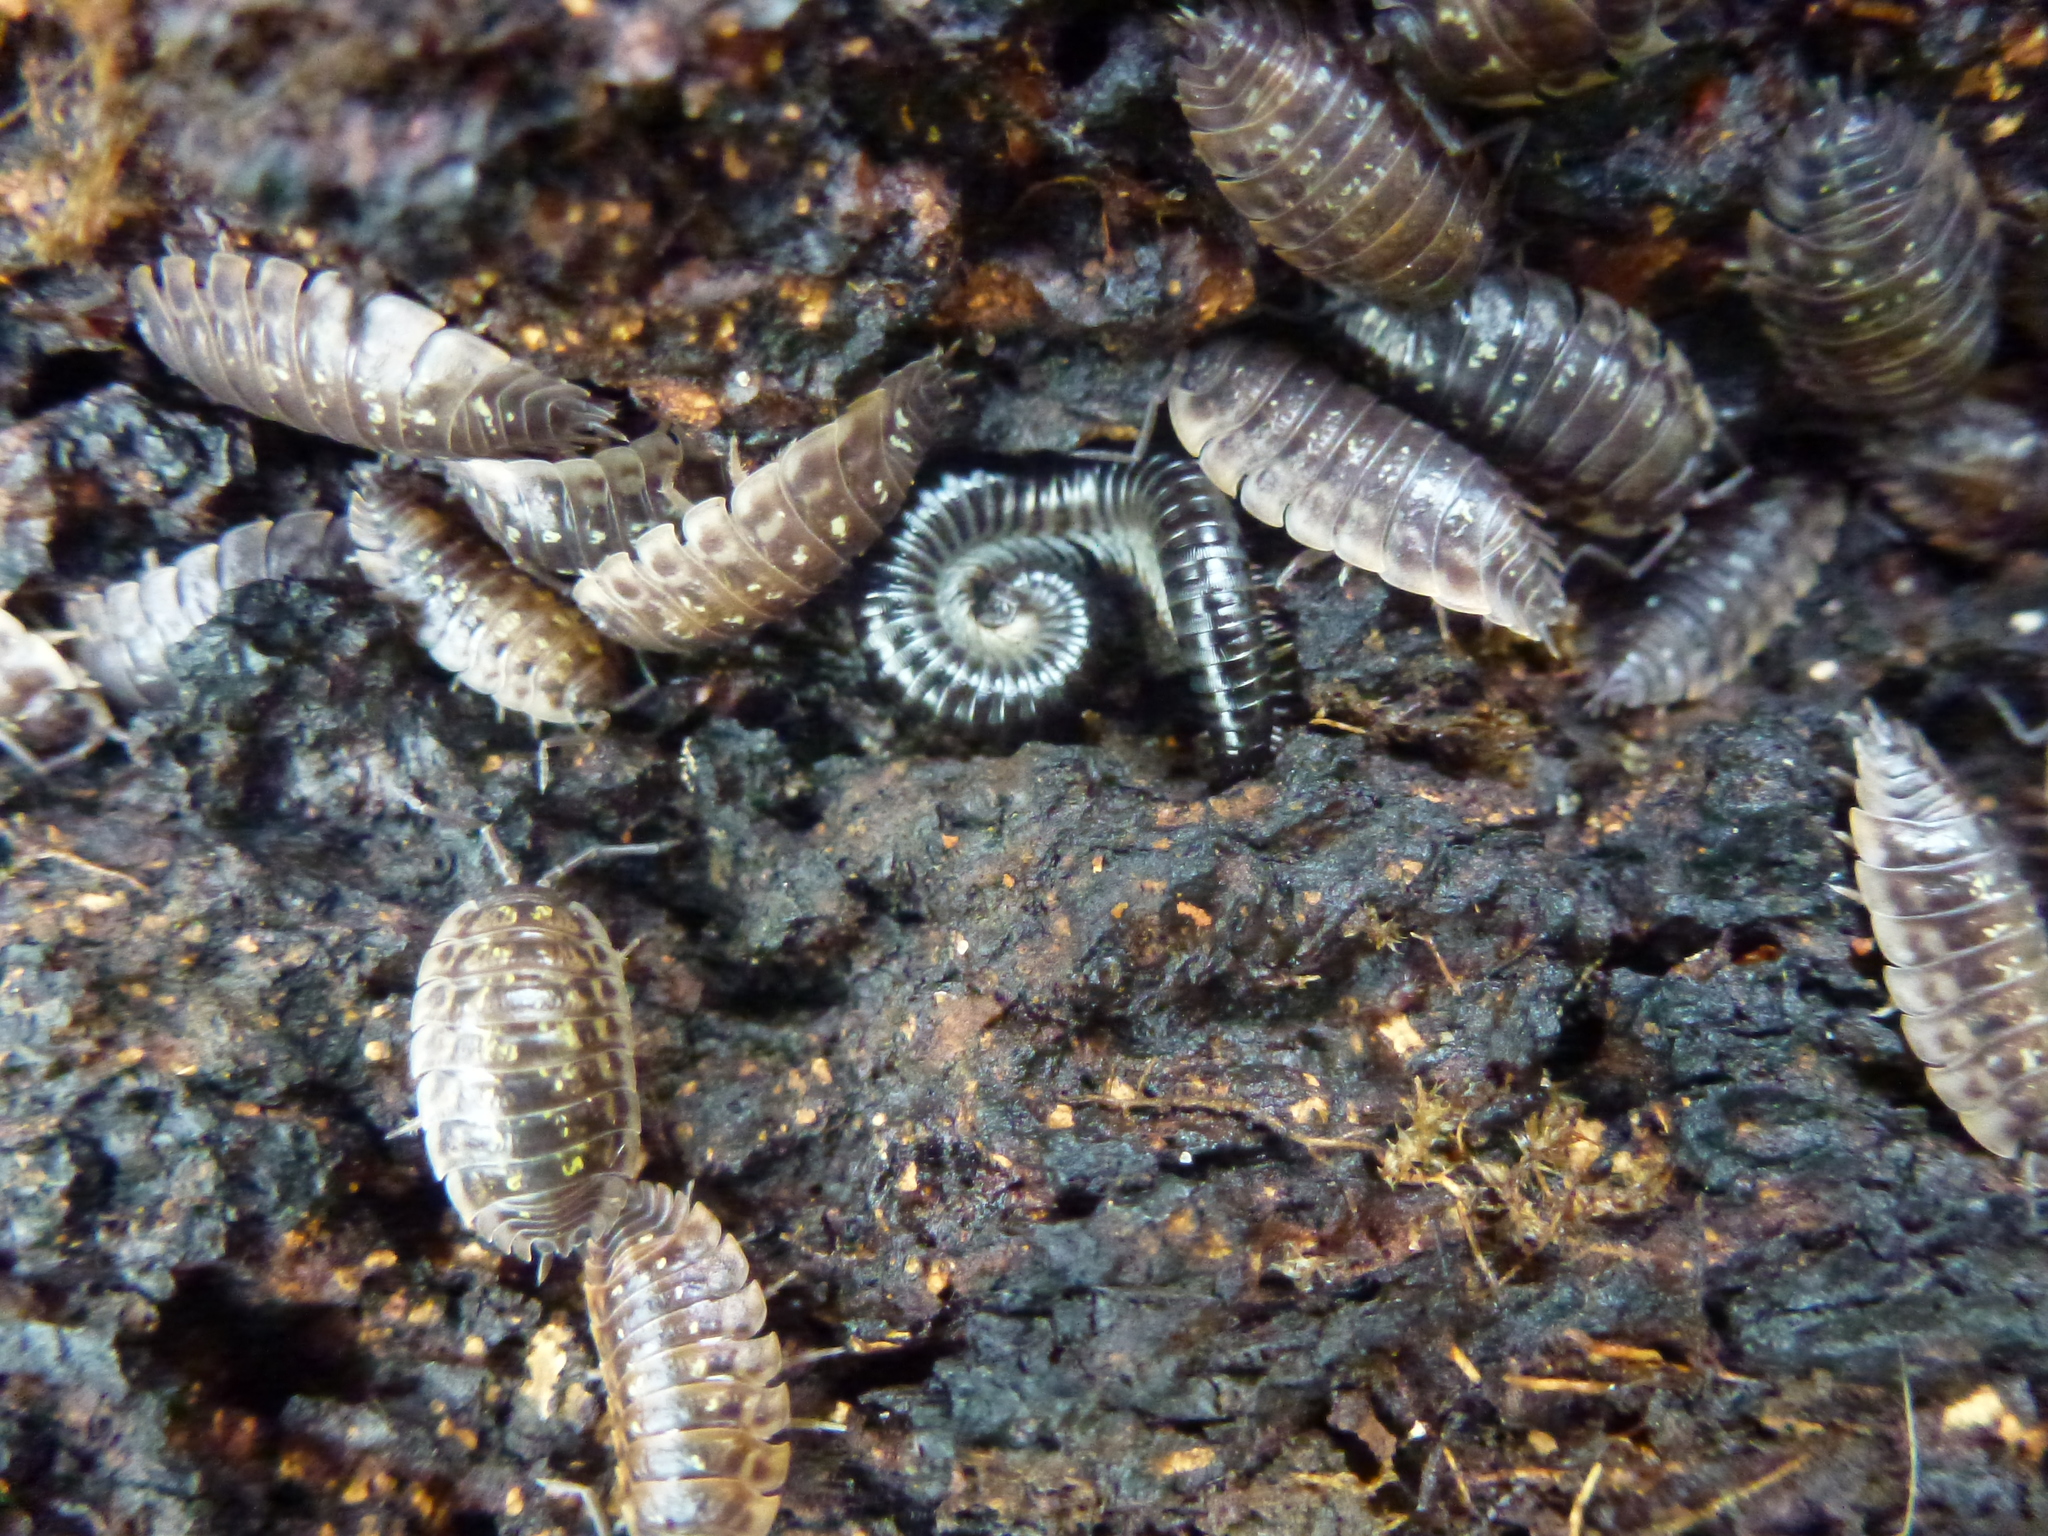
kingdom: Animalia
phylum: Arthropoda
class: Diplopoda
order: Julida
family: Julidae
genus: Tachypodoiulus
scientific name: Tachypodoiulus niger
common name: White-legged snake millipede
